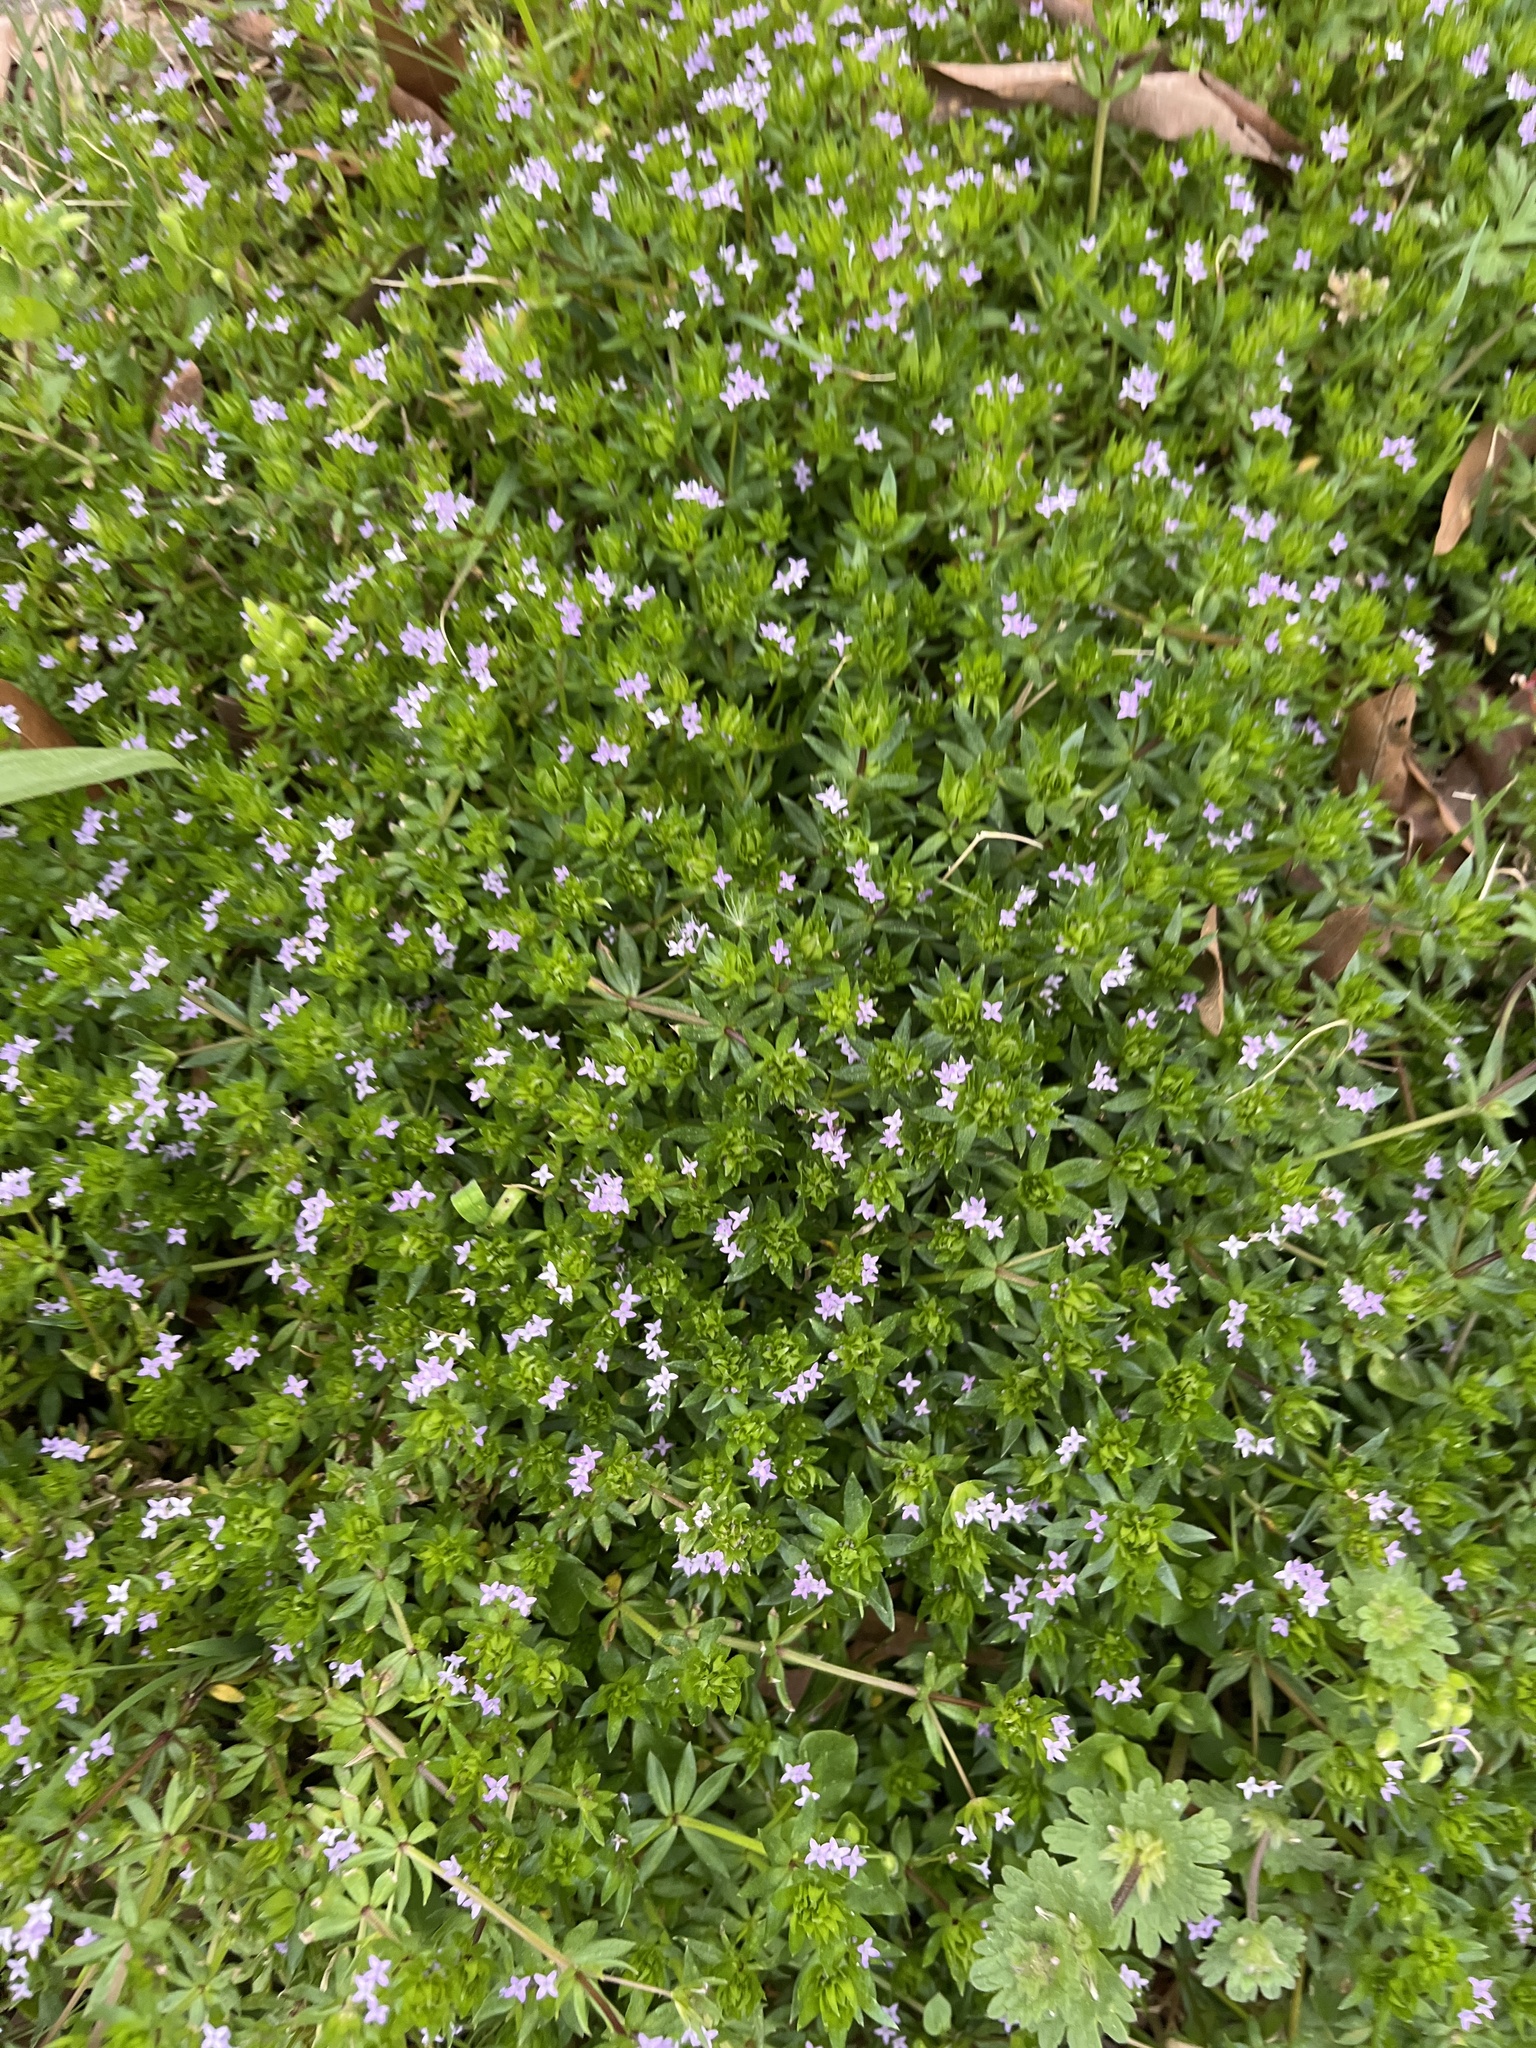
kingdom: Plantae
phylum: Tracheophyta
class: Magnoliopsida
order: Gentianales
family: Rubiaceae
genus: Sherardia
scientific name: Sherardia arvensis
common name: Field madder
